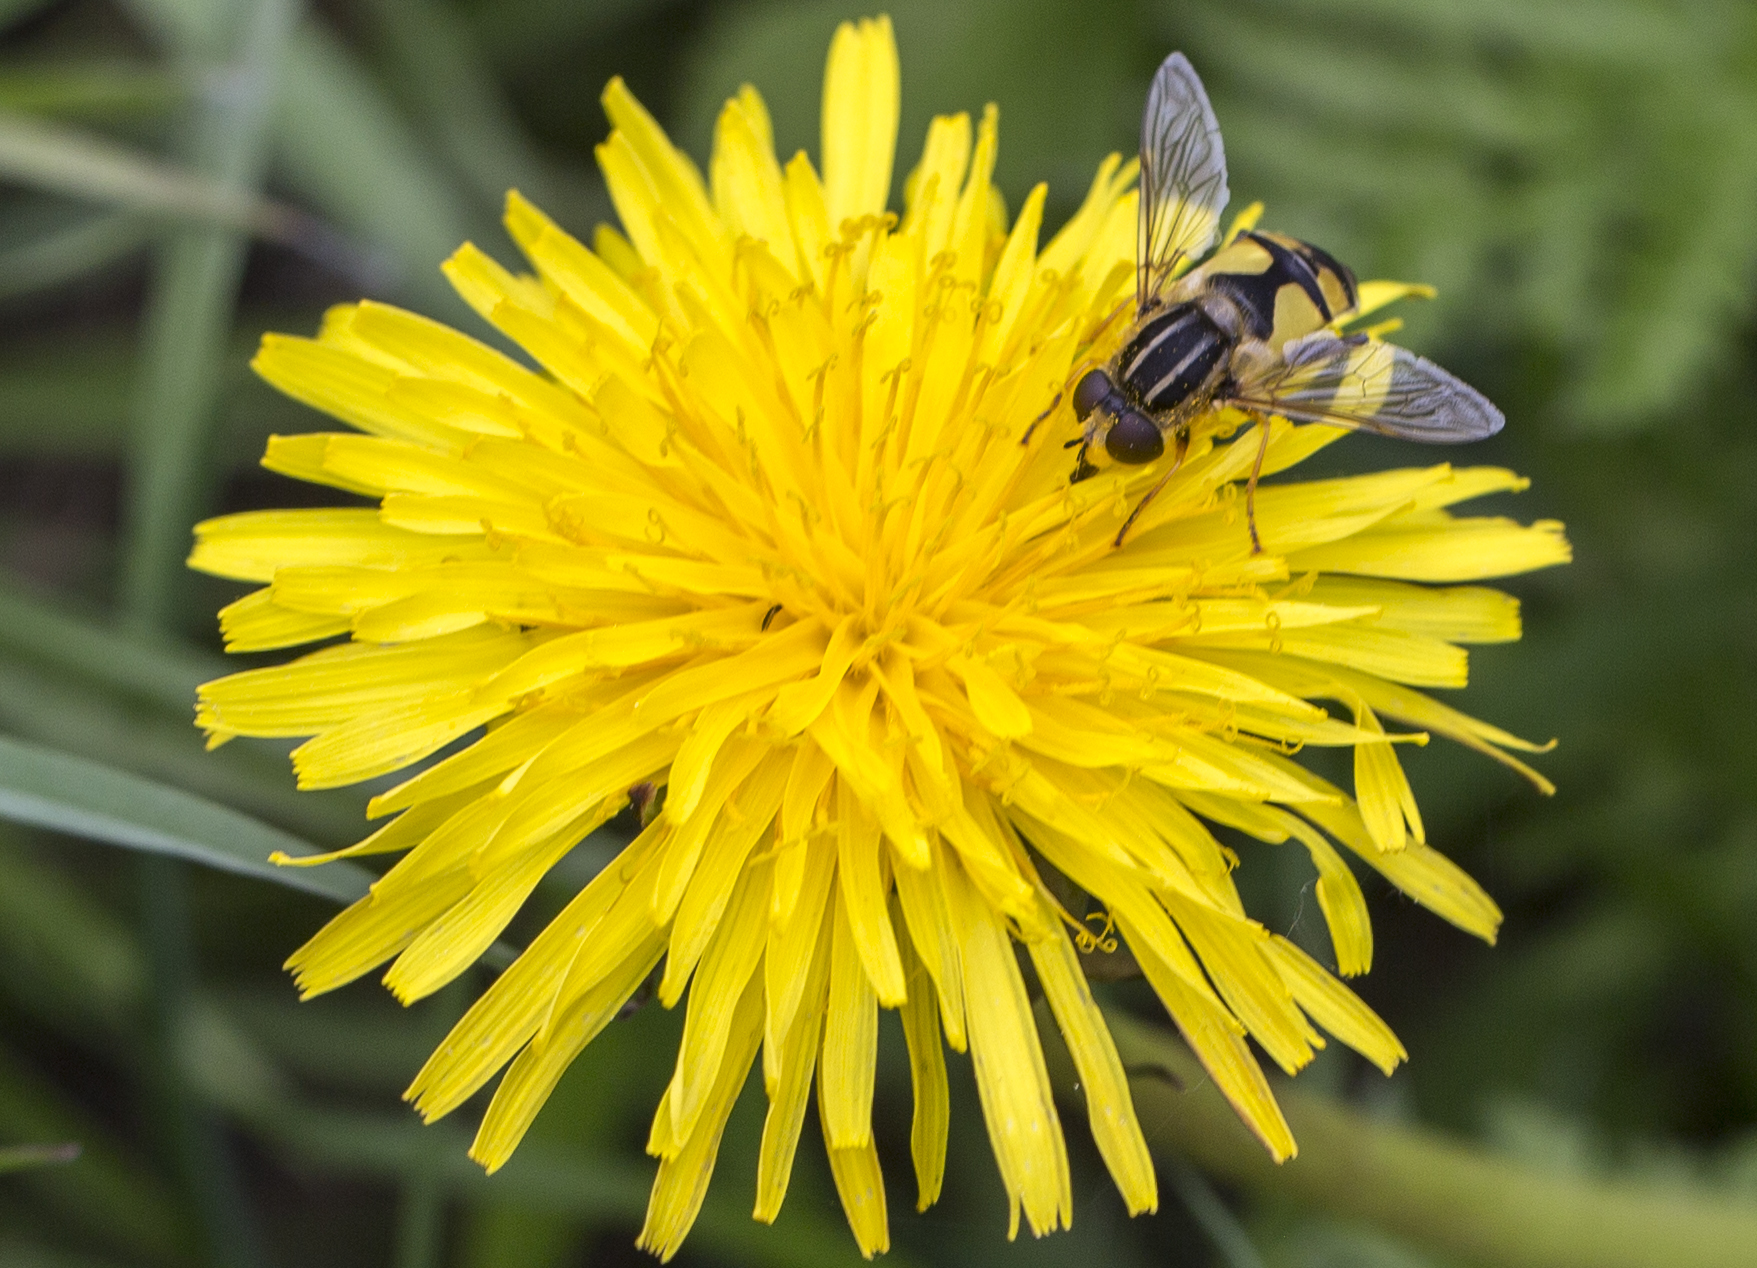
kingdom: Animalia
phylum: Arthropoda
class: Insecta
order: Diptera
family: Syrphidae
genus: Helophilus
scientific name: Helophilus trivittatus
